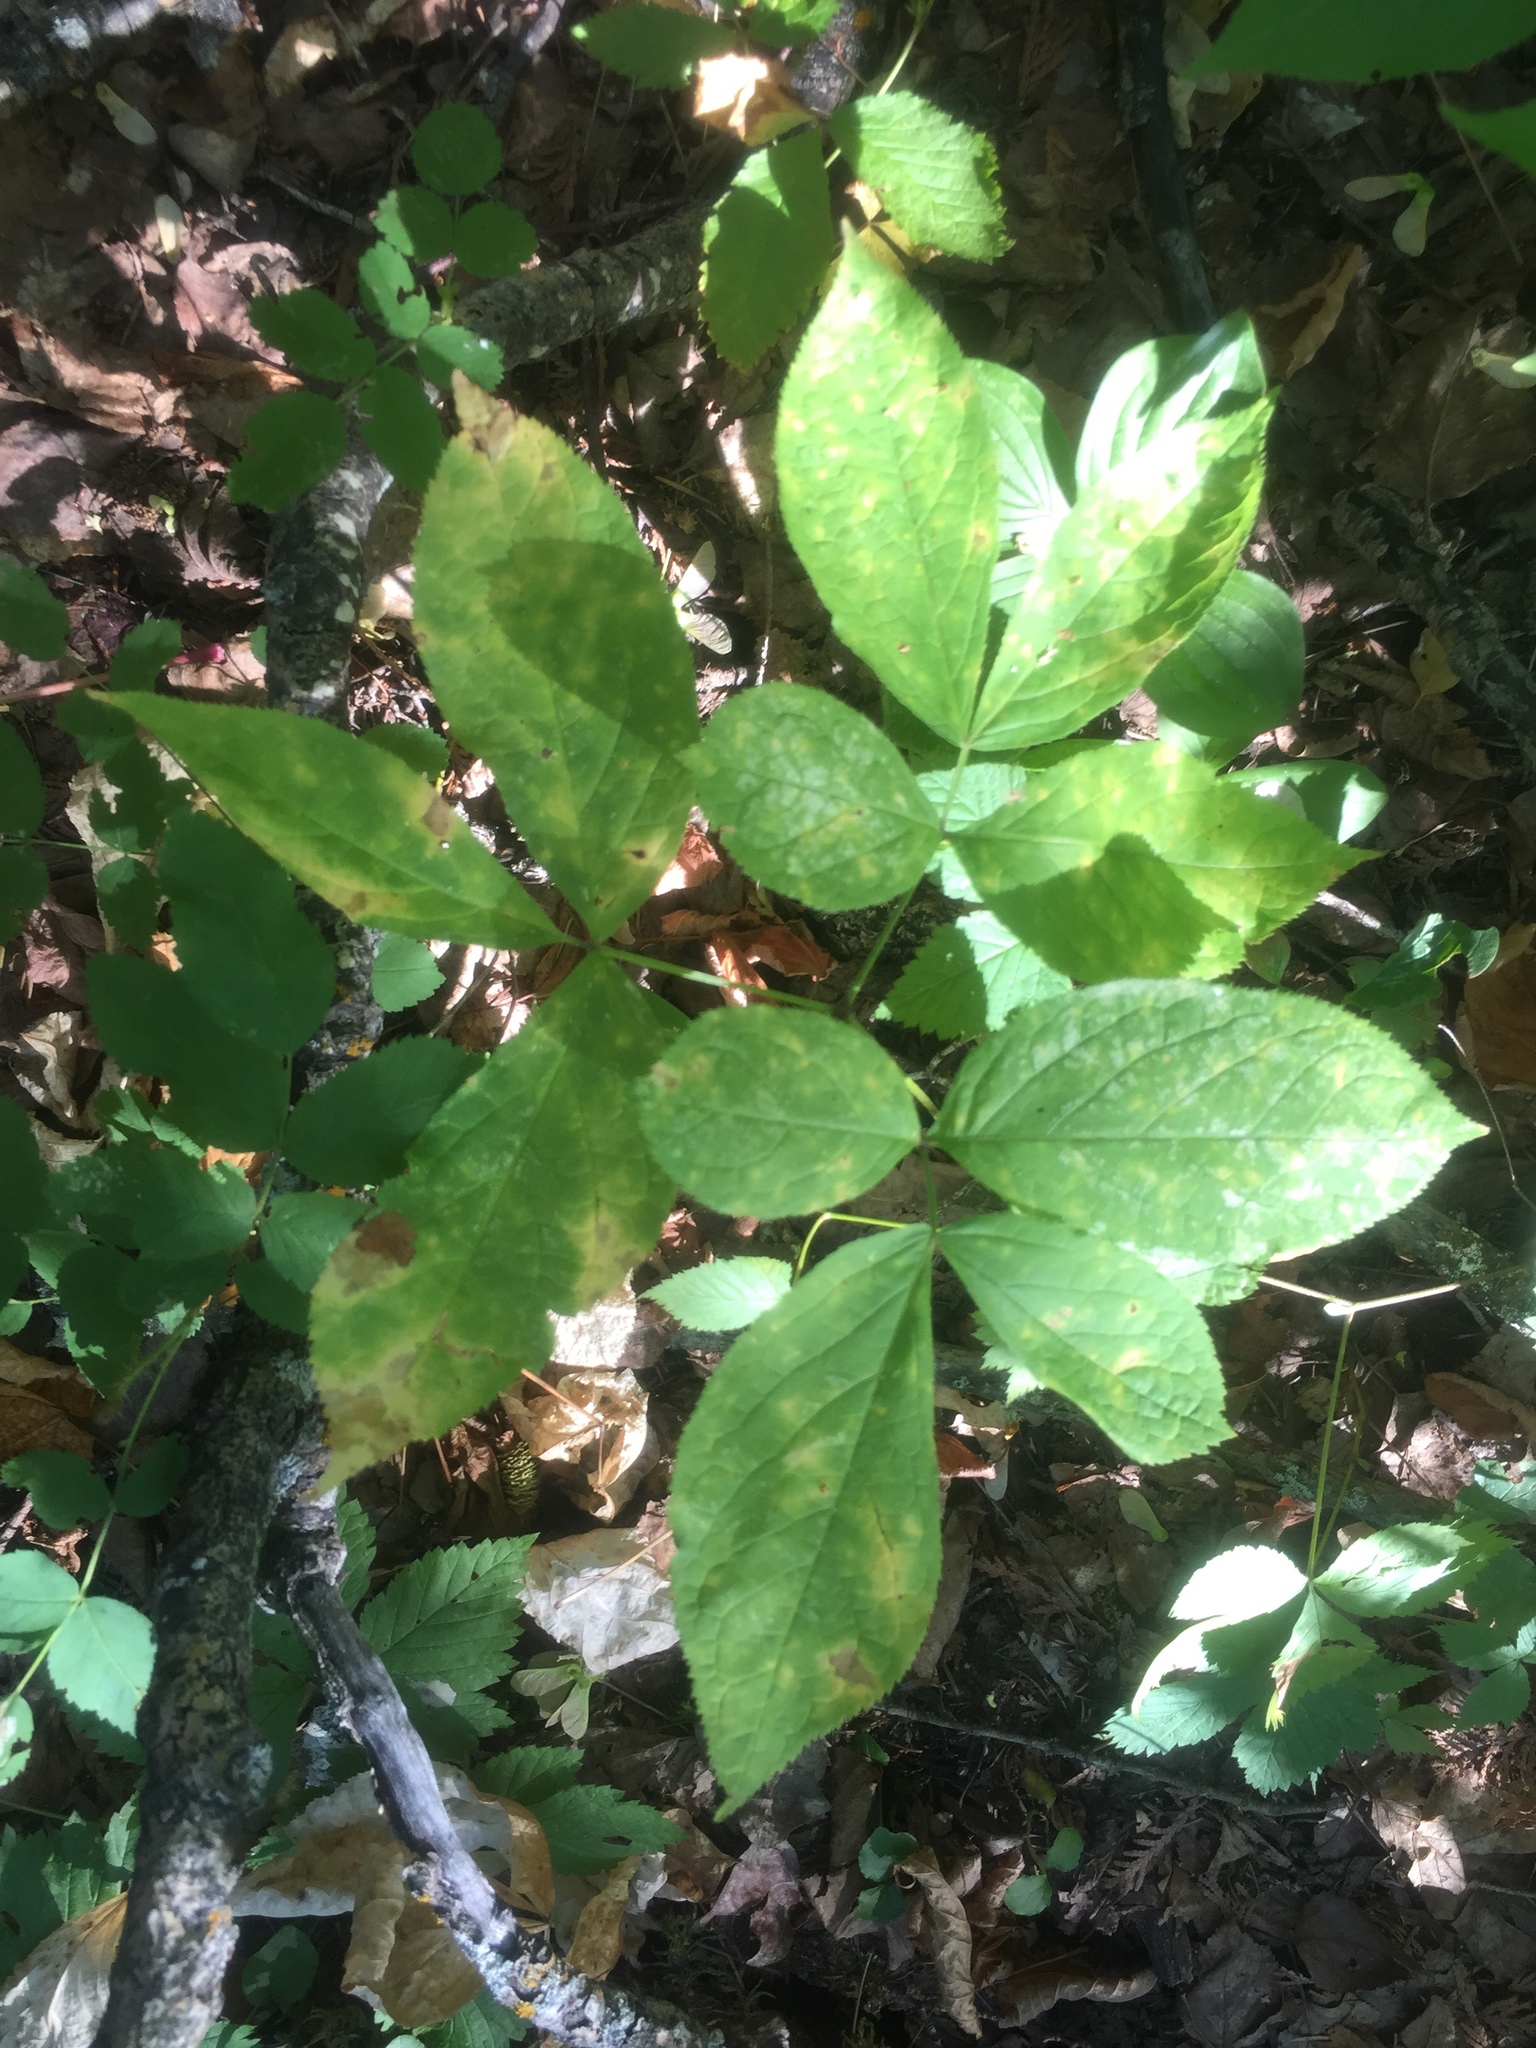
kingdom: Plantae
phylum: Tracheophyta
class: Magnoliopsida
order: Apiales
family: Araliaceae
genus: Aralia
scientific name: Aralia nudicaulis
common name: Wild sarsaparilla
